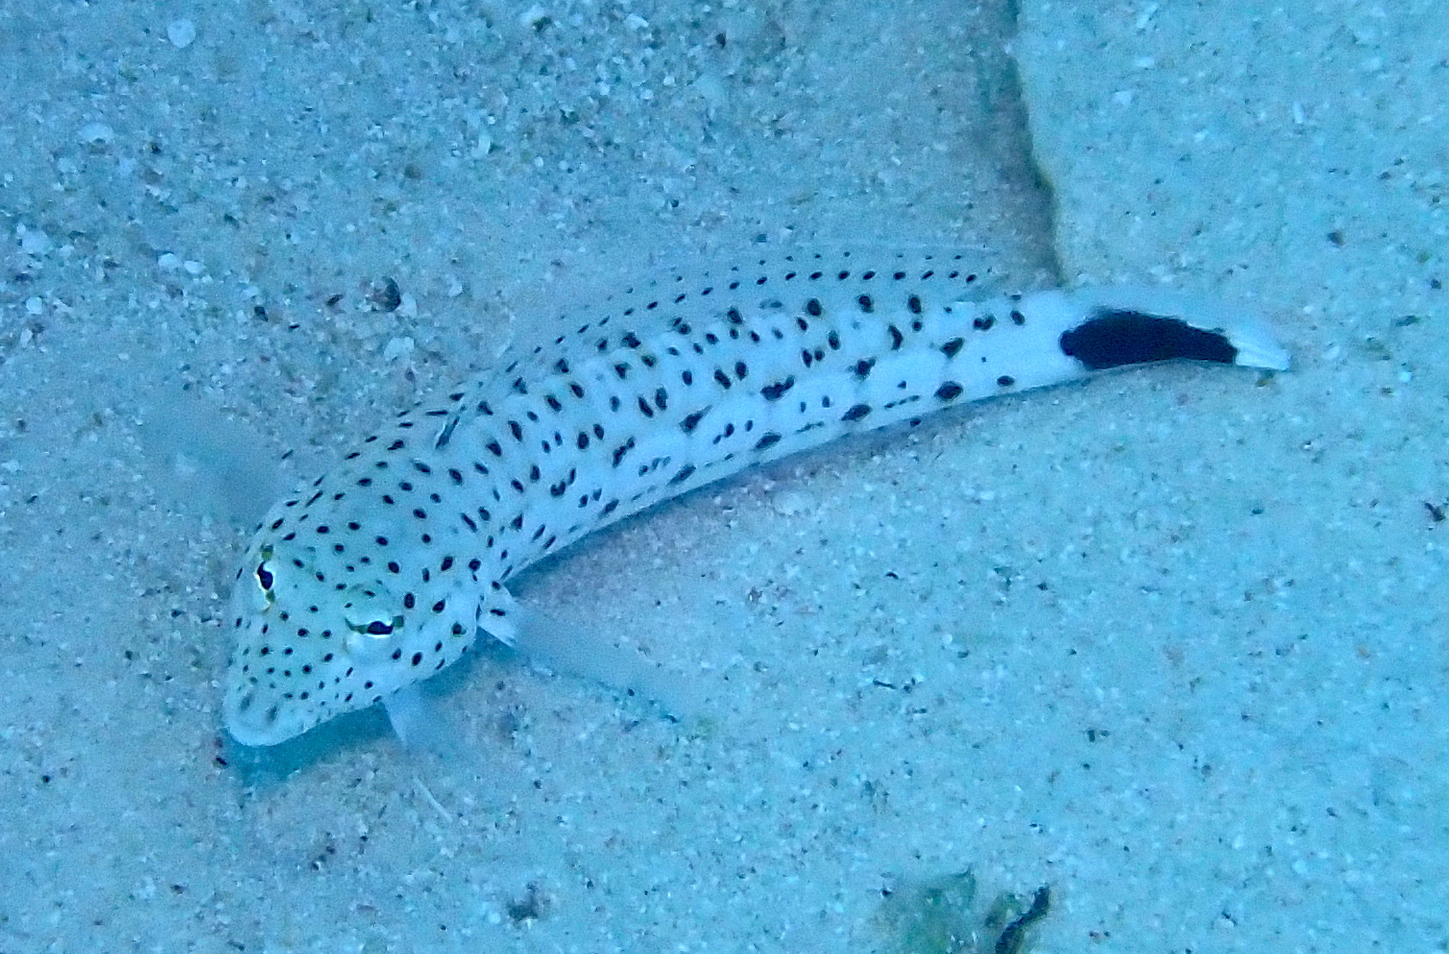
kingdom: Animalia
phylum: Chordata
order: Perciformes
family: Pinguipedidae
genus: Parapercis
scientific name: Parapercis pacifica
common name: Speckled sandperch
